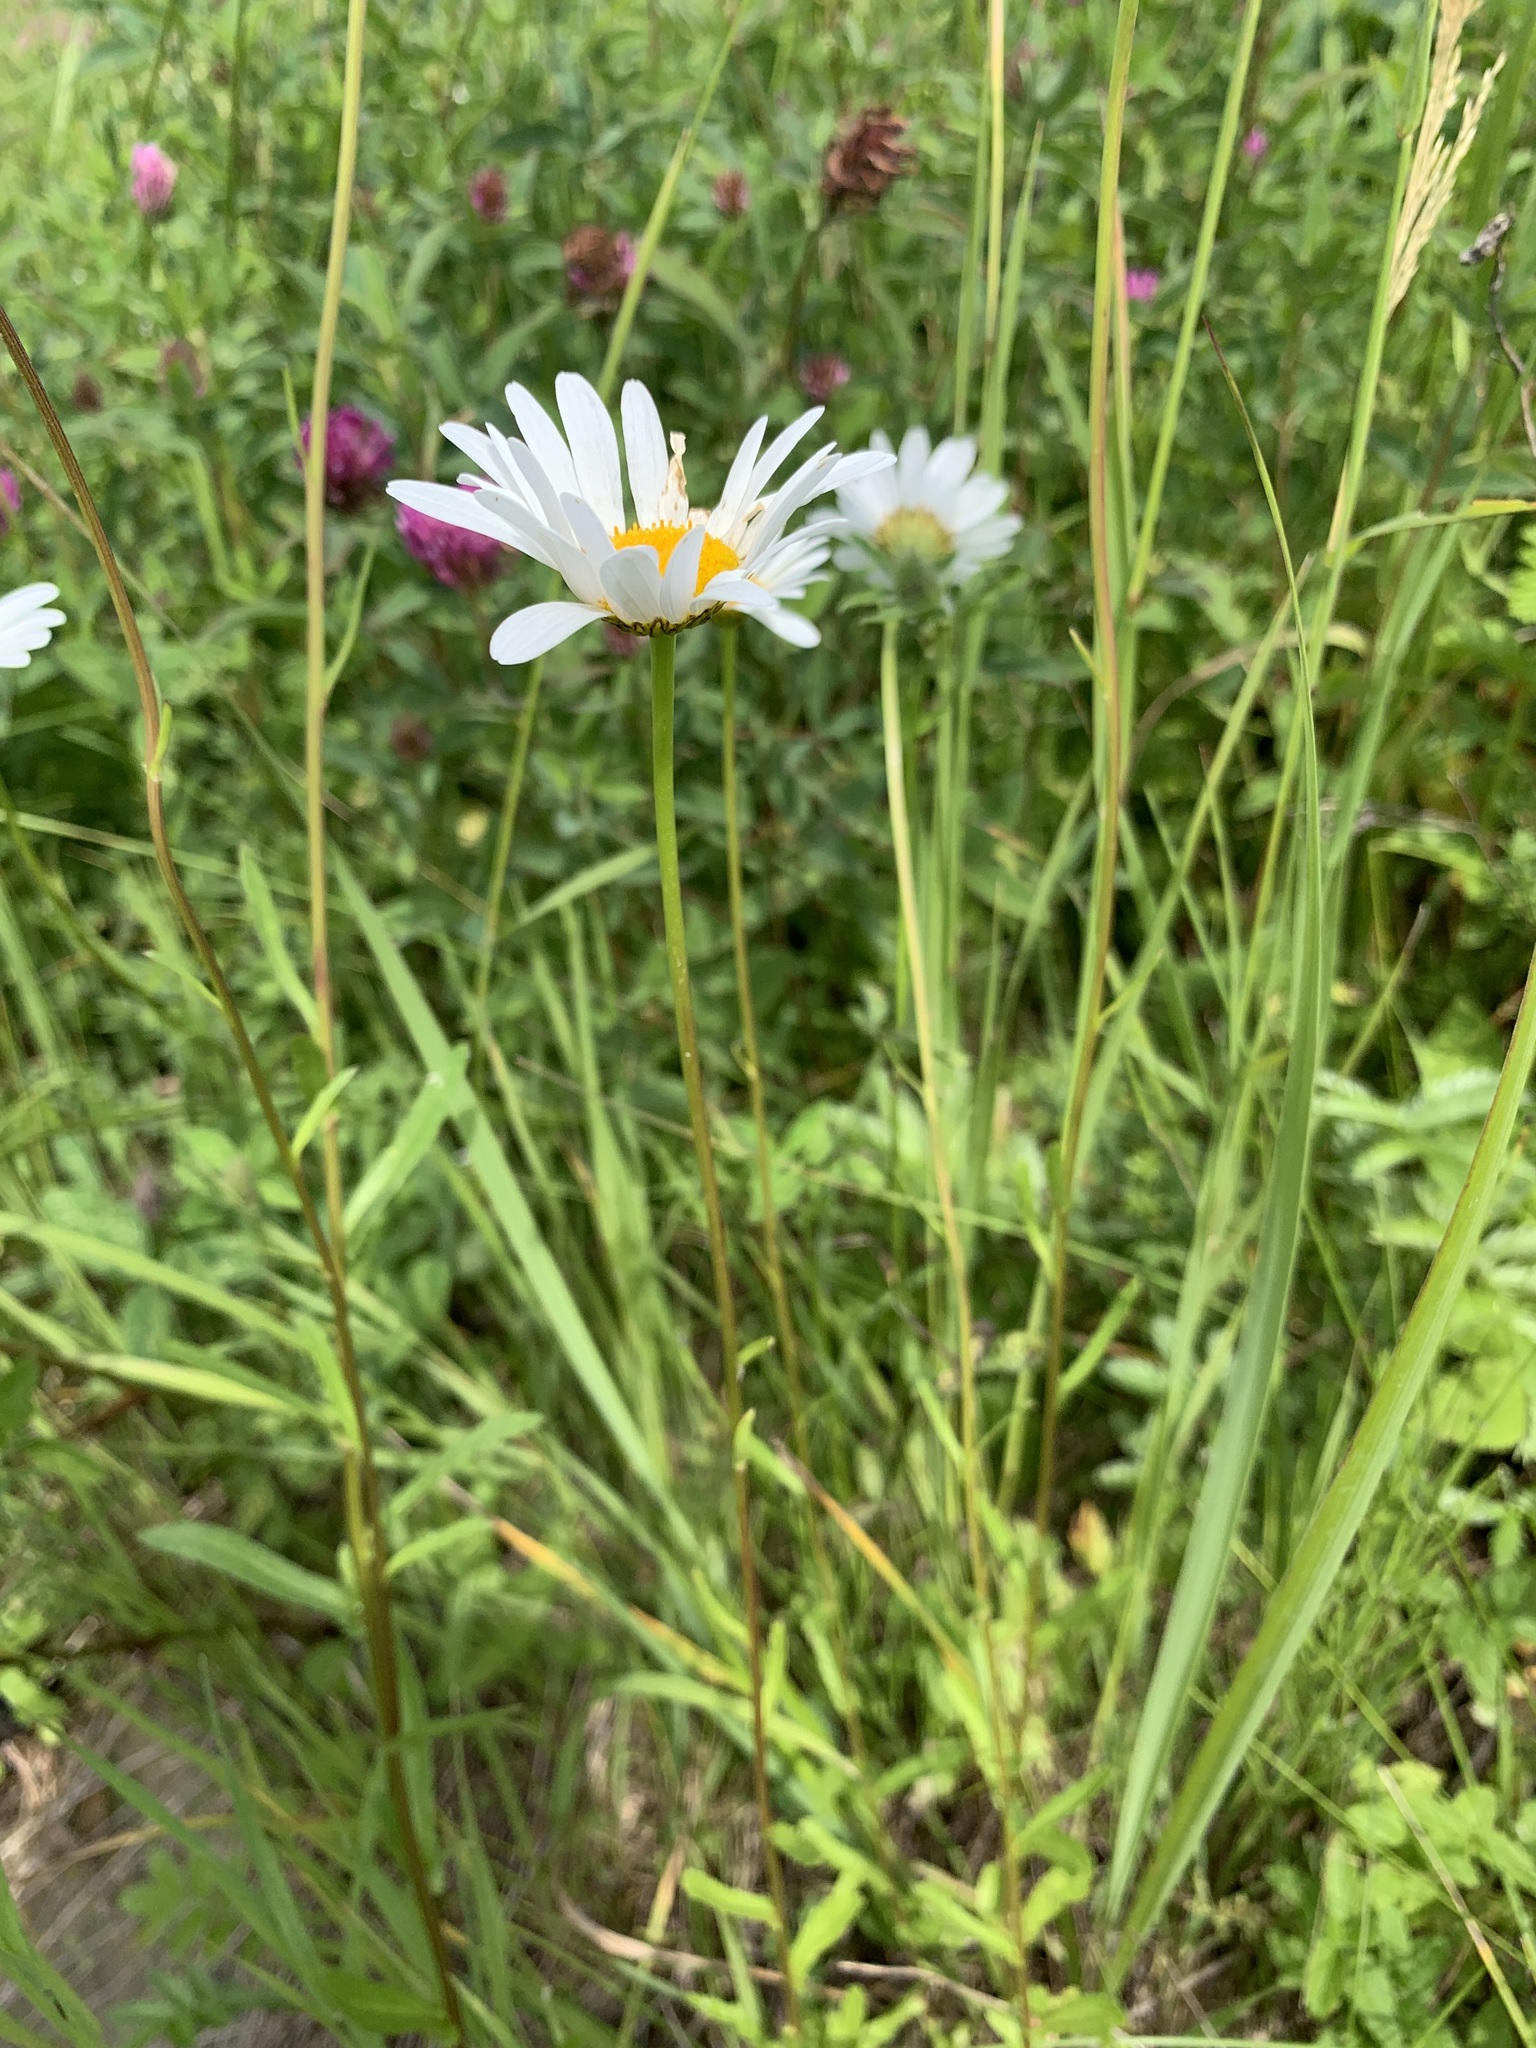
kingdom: Plantae
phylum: Tracheophyta
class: Magnoliopsida
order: Asterales
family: Asteraceae
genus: Leucanthemum
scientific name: Leucanthemum ircutianum
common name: Daisy
